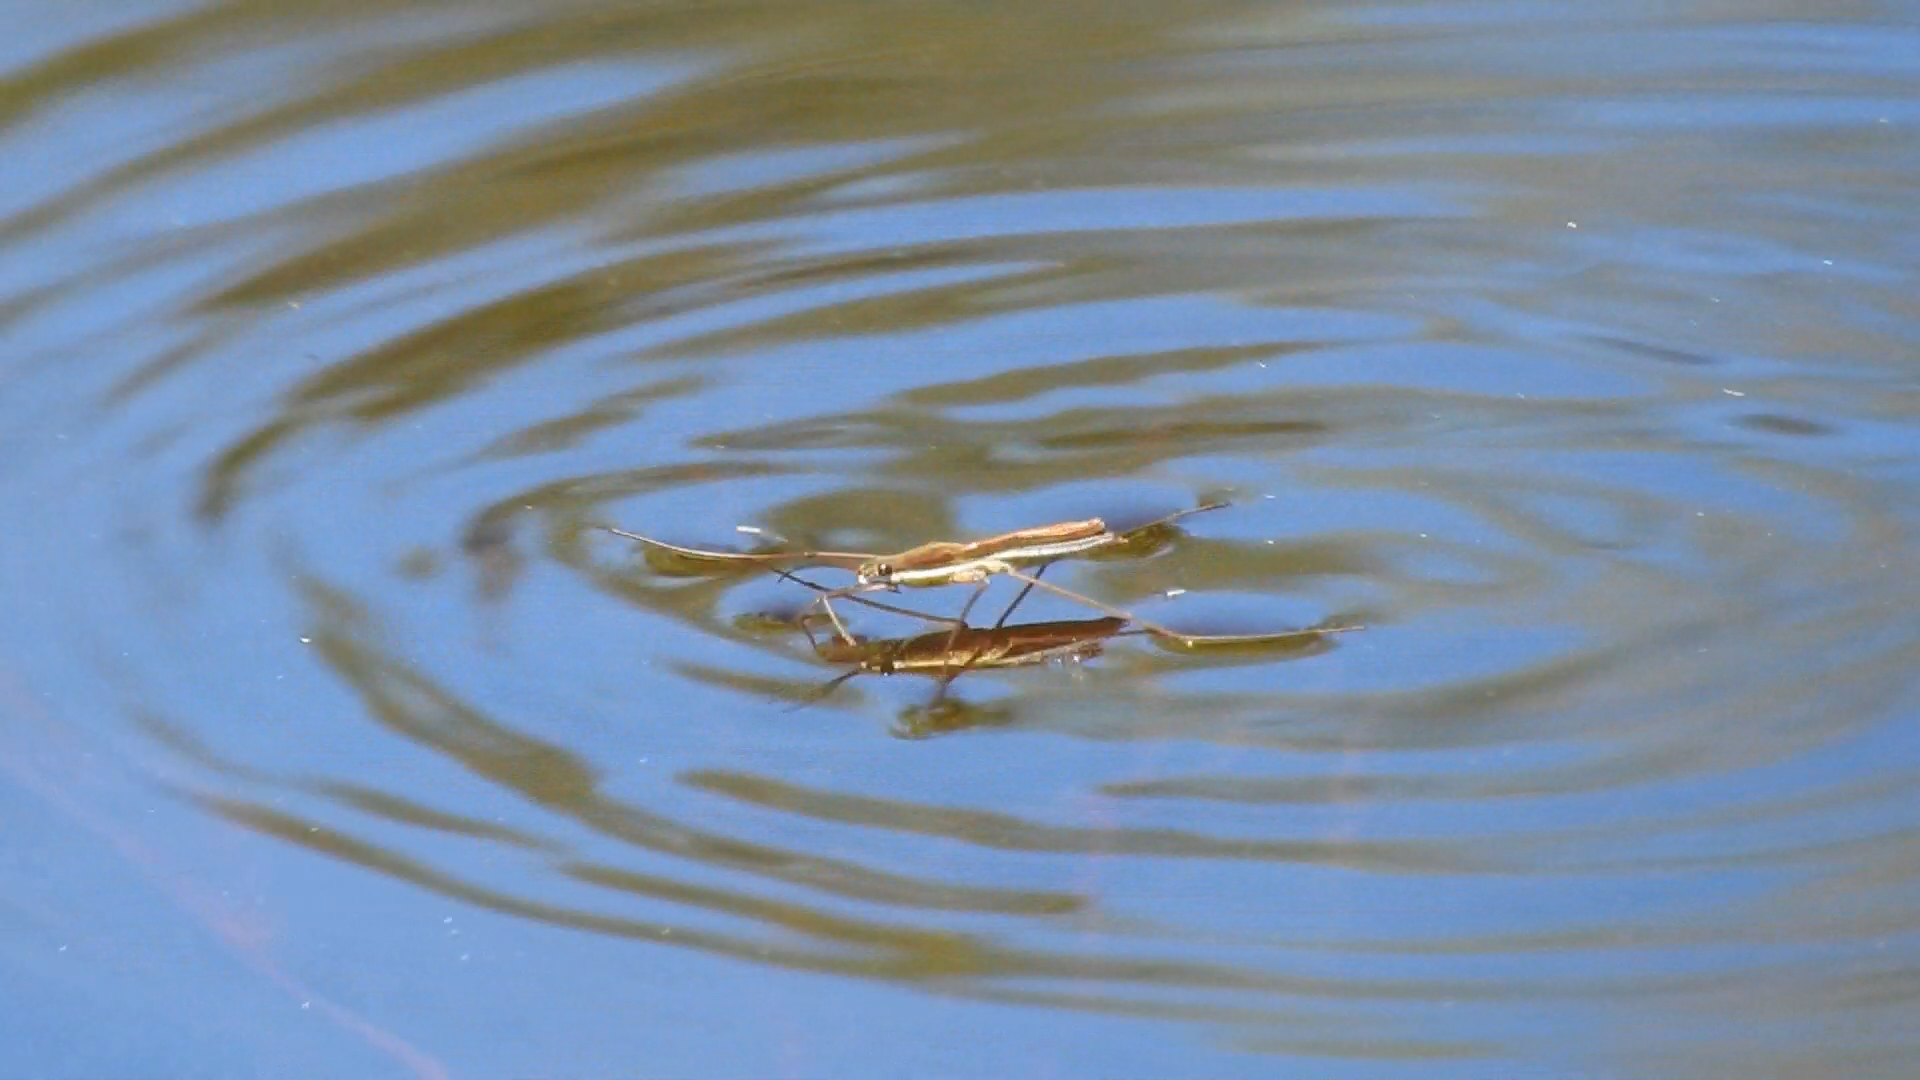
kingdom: Animalia
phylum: Arthropoda
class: Insecta
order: Hemiptera
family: Gerridae
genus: Limnoporus
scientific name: Limnoporus
